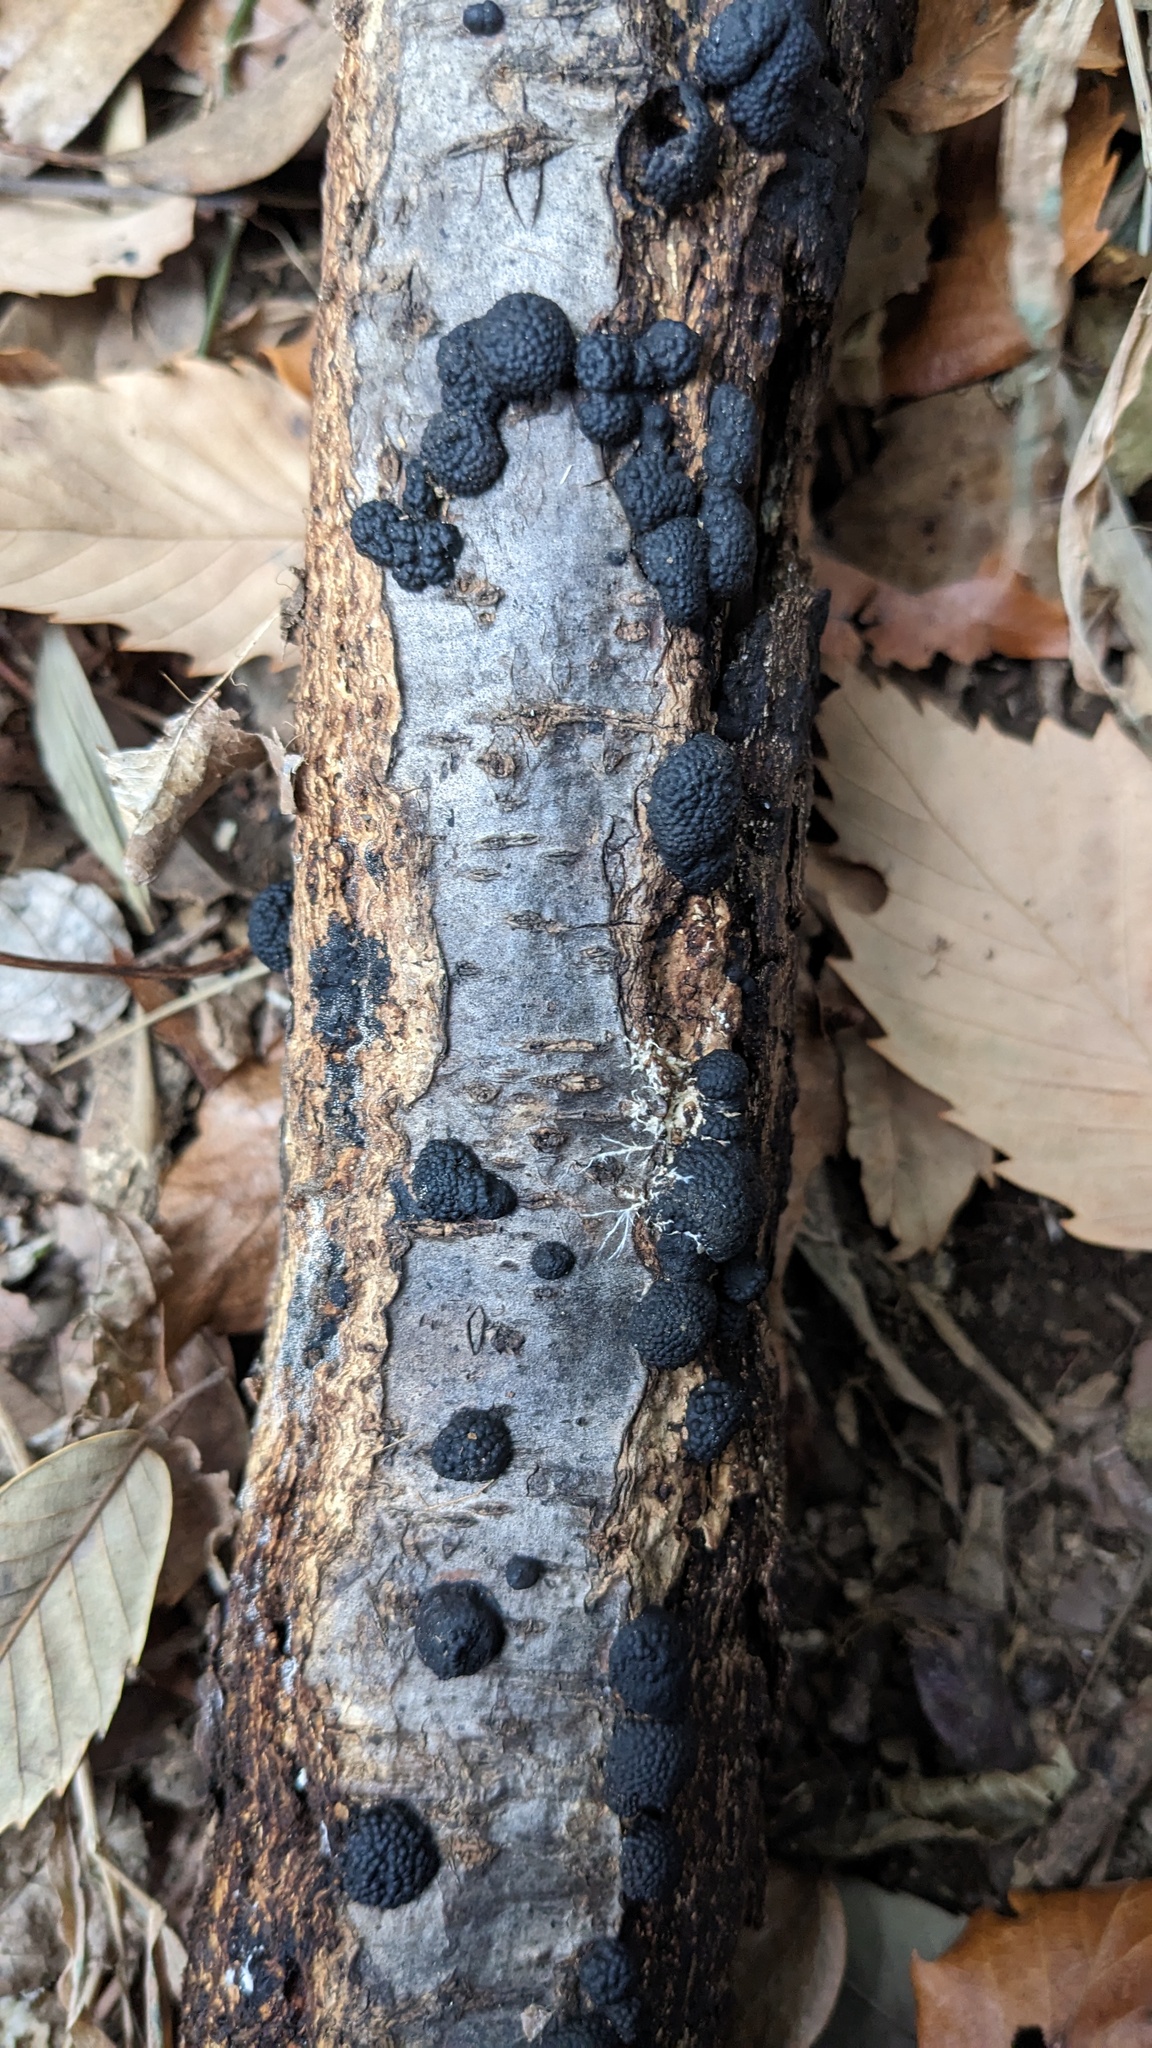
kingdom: Fungi
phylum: Ascomycota
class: Sordariomycetes
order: Xylariales
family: Hypoxylaceae
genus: Annulohypoxylon
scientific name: Annulohypoxylon truncatum
